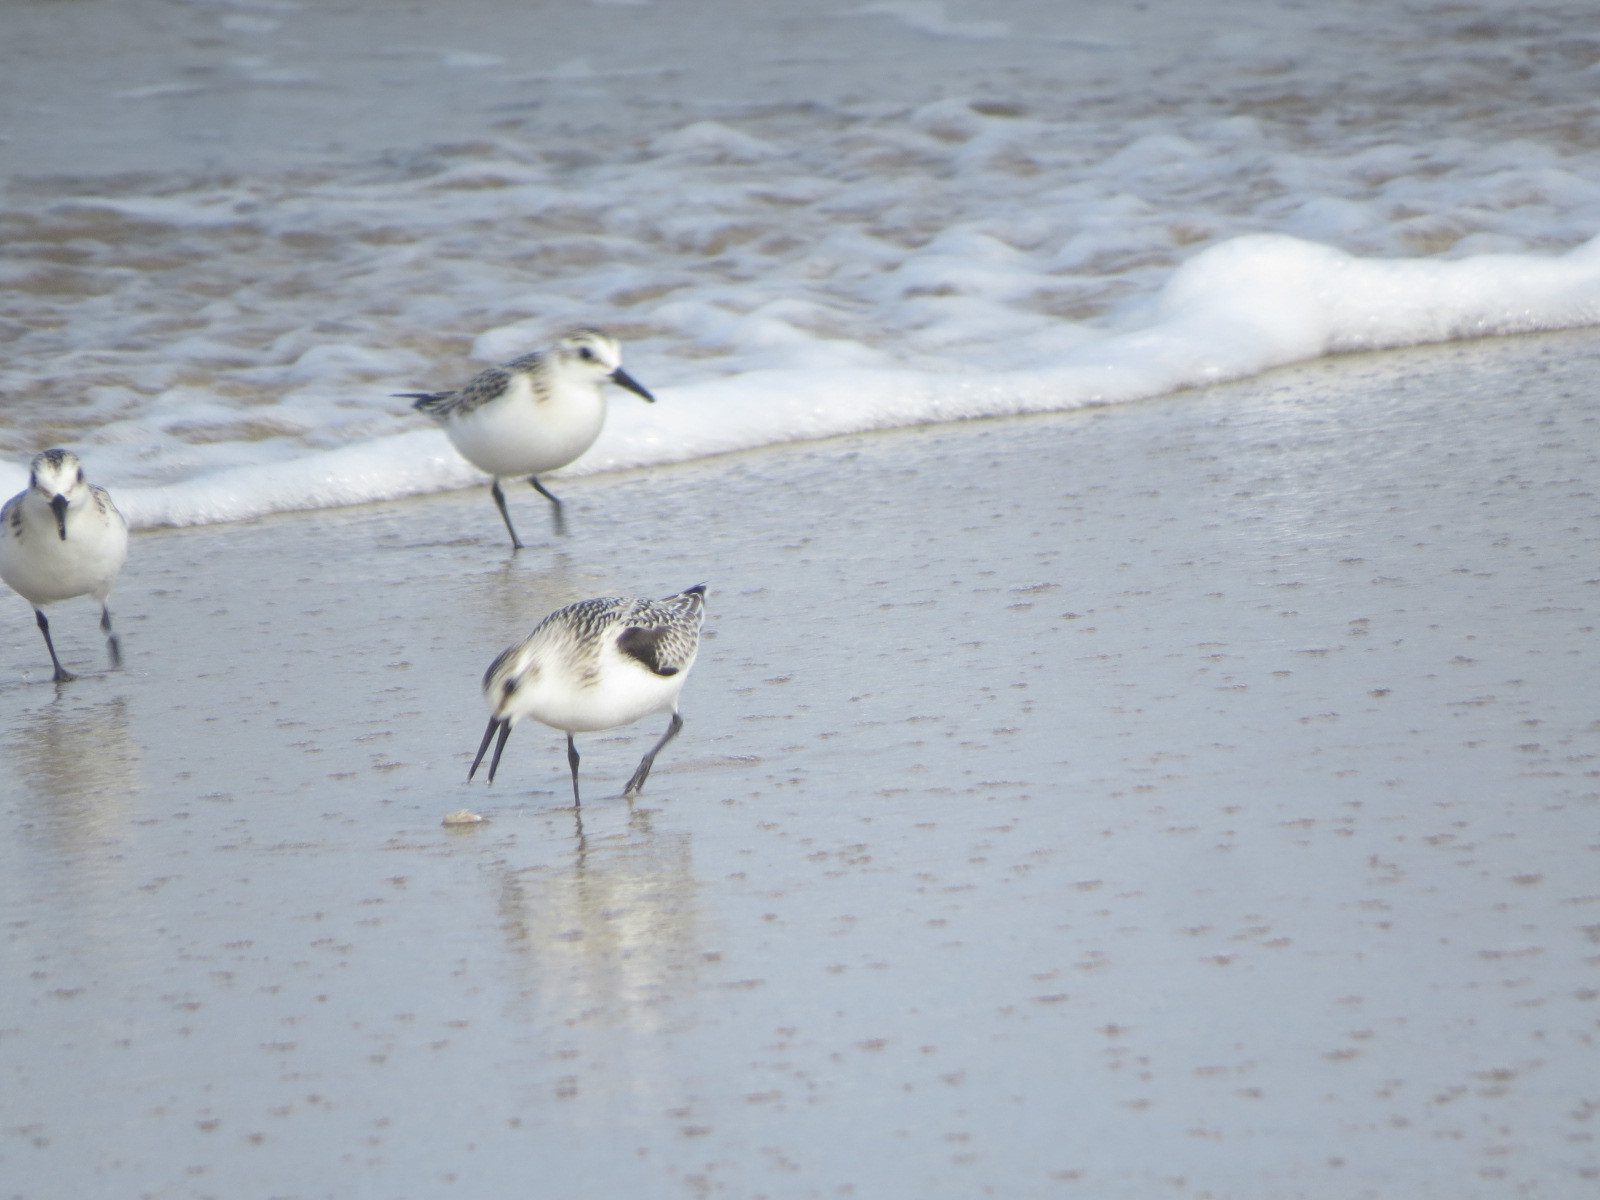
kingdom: Animalia
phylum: Chordata
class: Aves
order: Charadriiformes
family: Scolopacidae
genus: Calidris
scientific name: Calidris alba
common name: Sanderling
